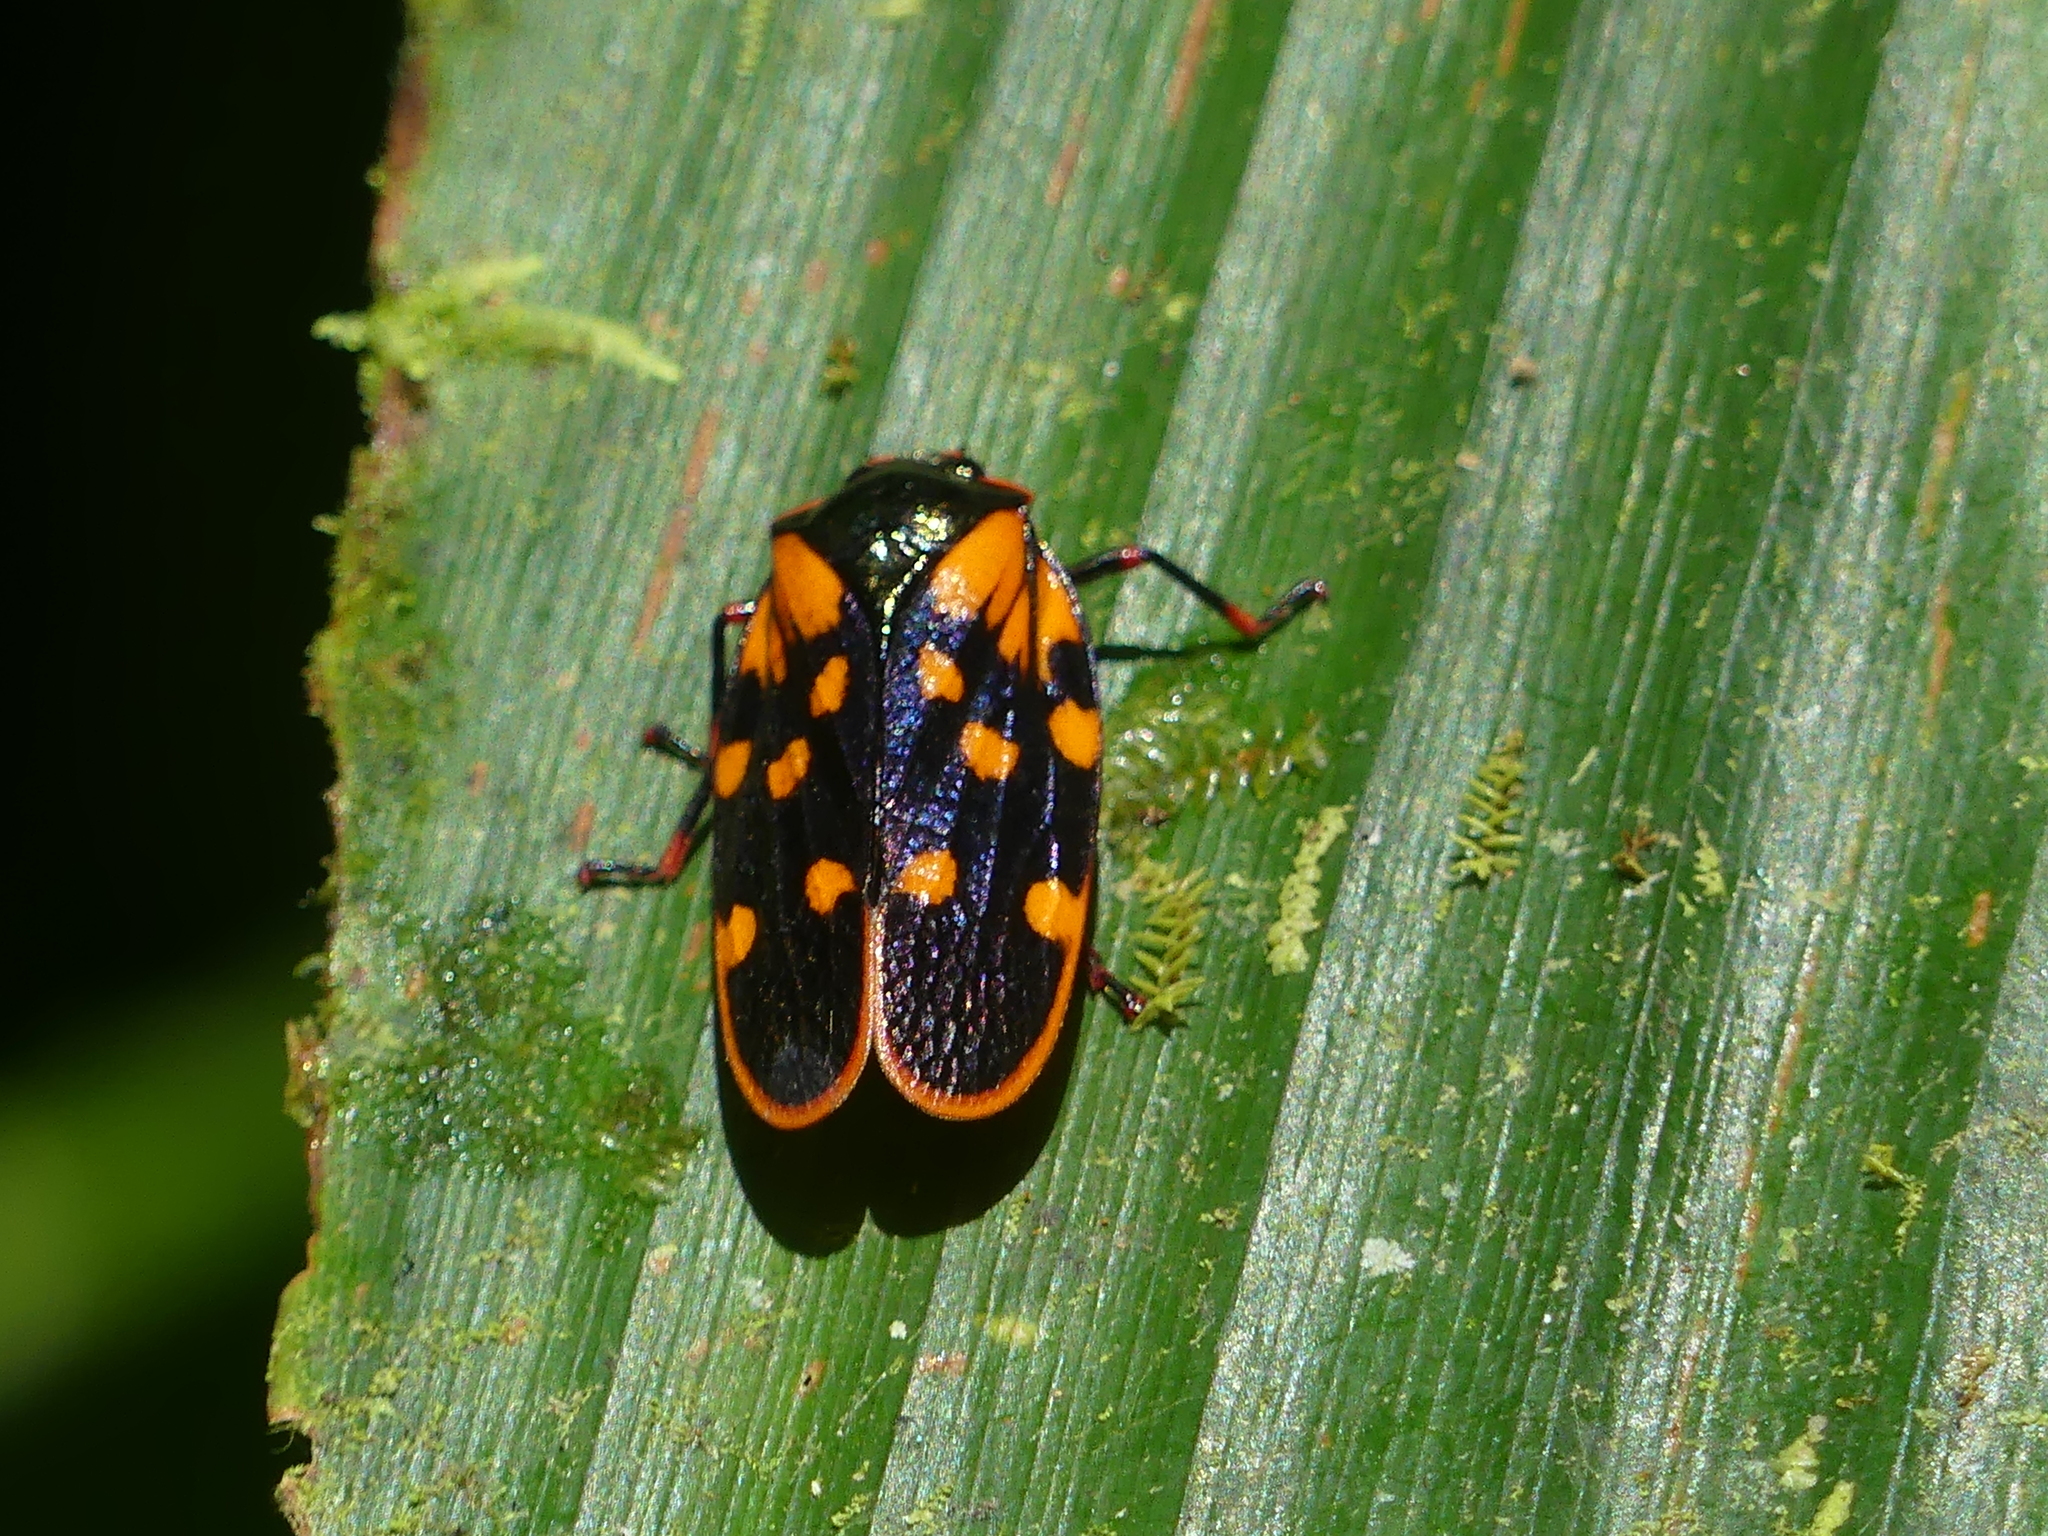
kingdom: Animalia
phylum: Arthropoda
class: Insecta
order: Hemiptera
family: Cercopidae
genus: Mahanarva
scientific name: Mahanarva costaricensis
